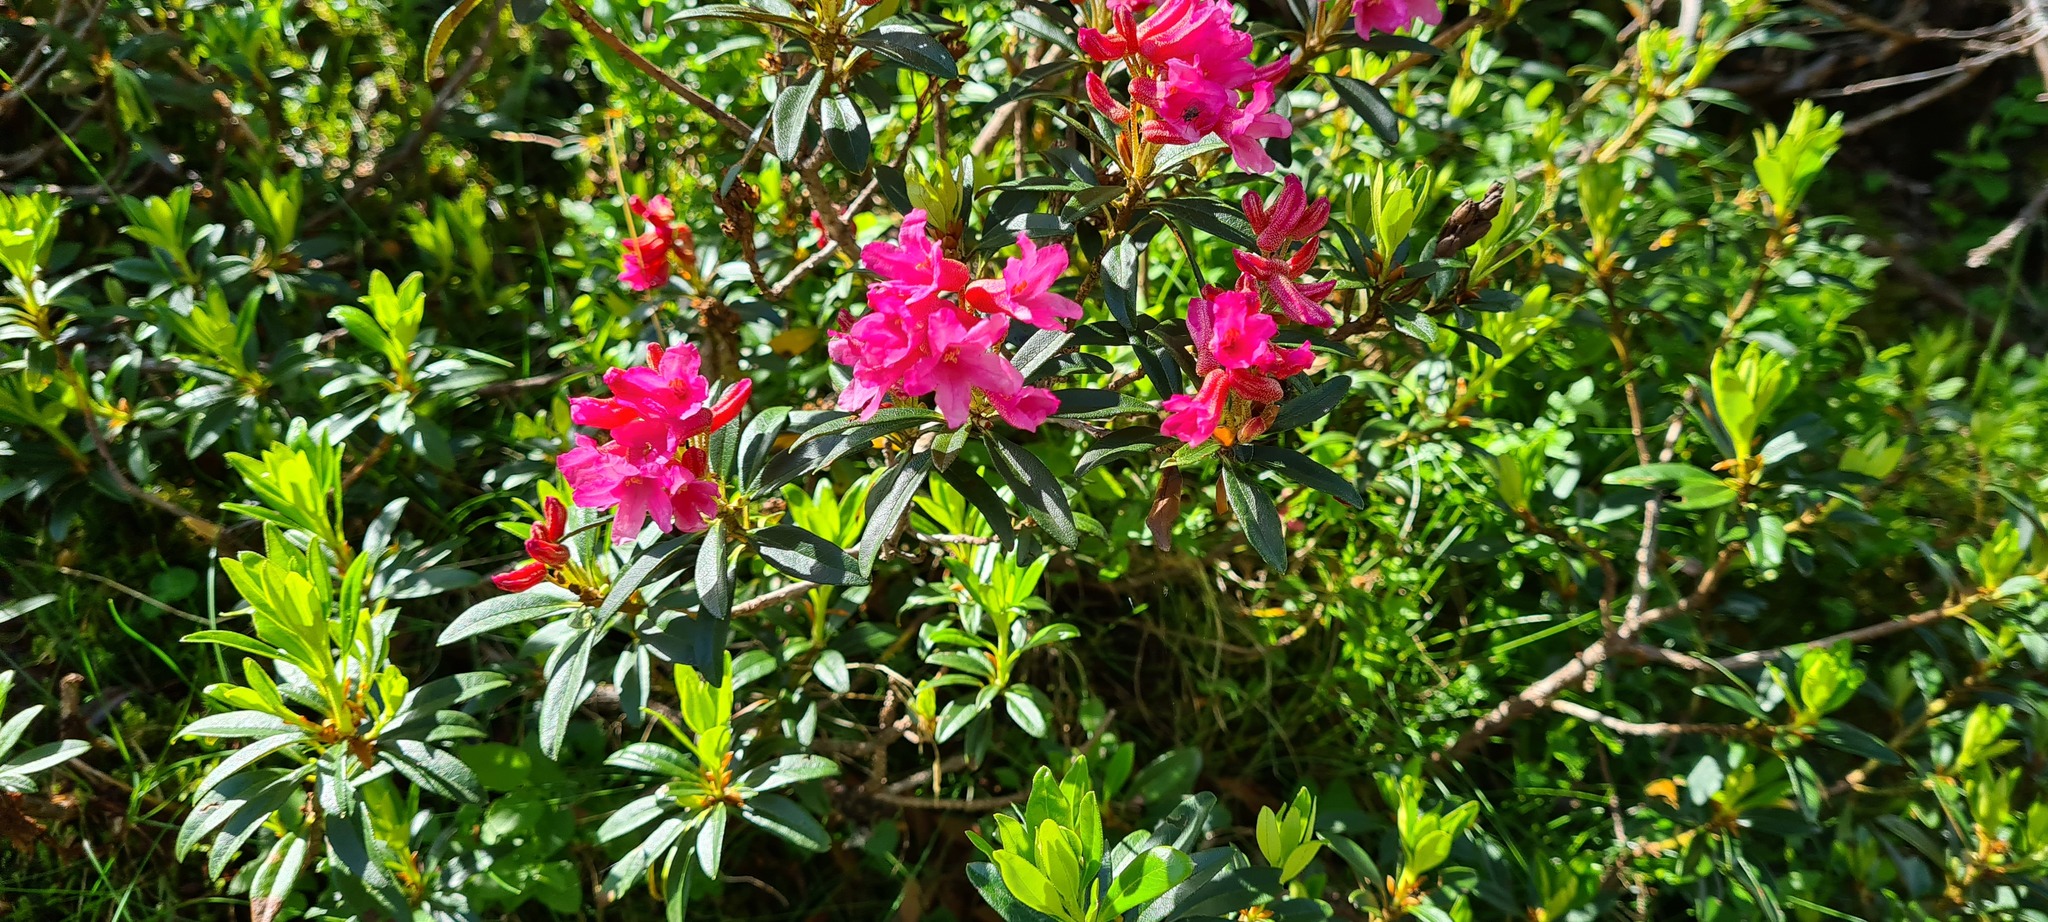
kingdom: Plantae
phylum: Tracheophyta
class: Magnoliopsida
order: Ericales
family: Ericaceae
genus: Rhododendron
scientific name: Rhododendron ferrugineum
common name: Alpenrose
